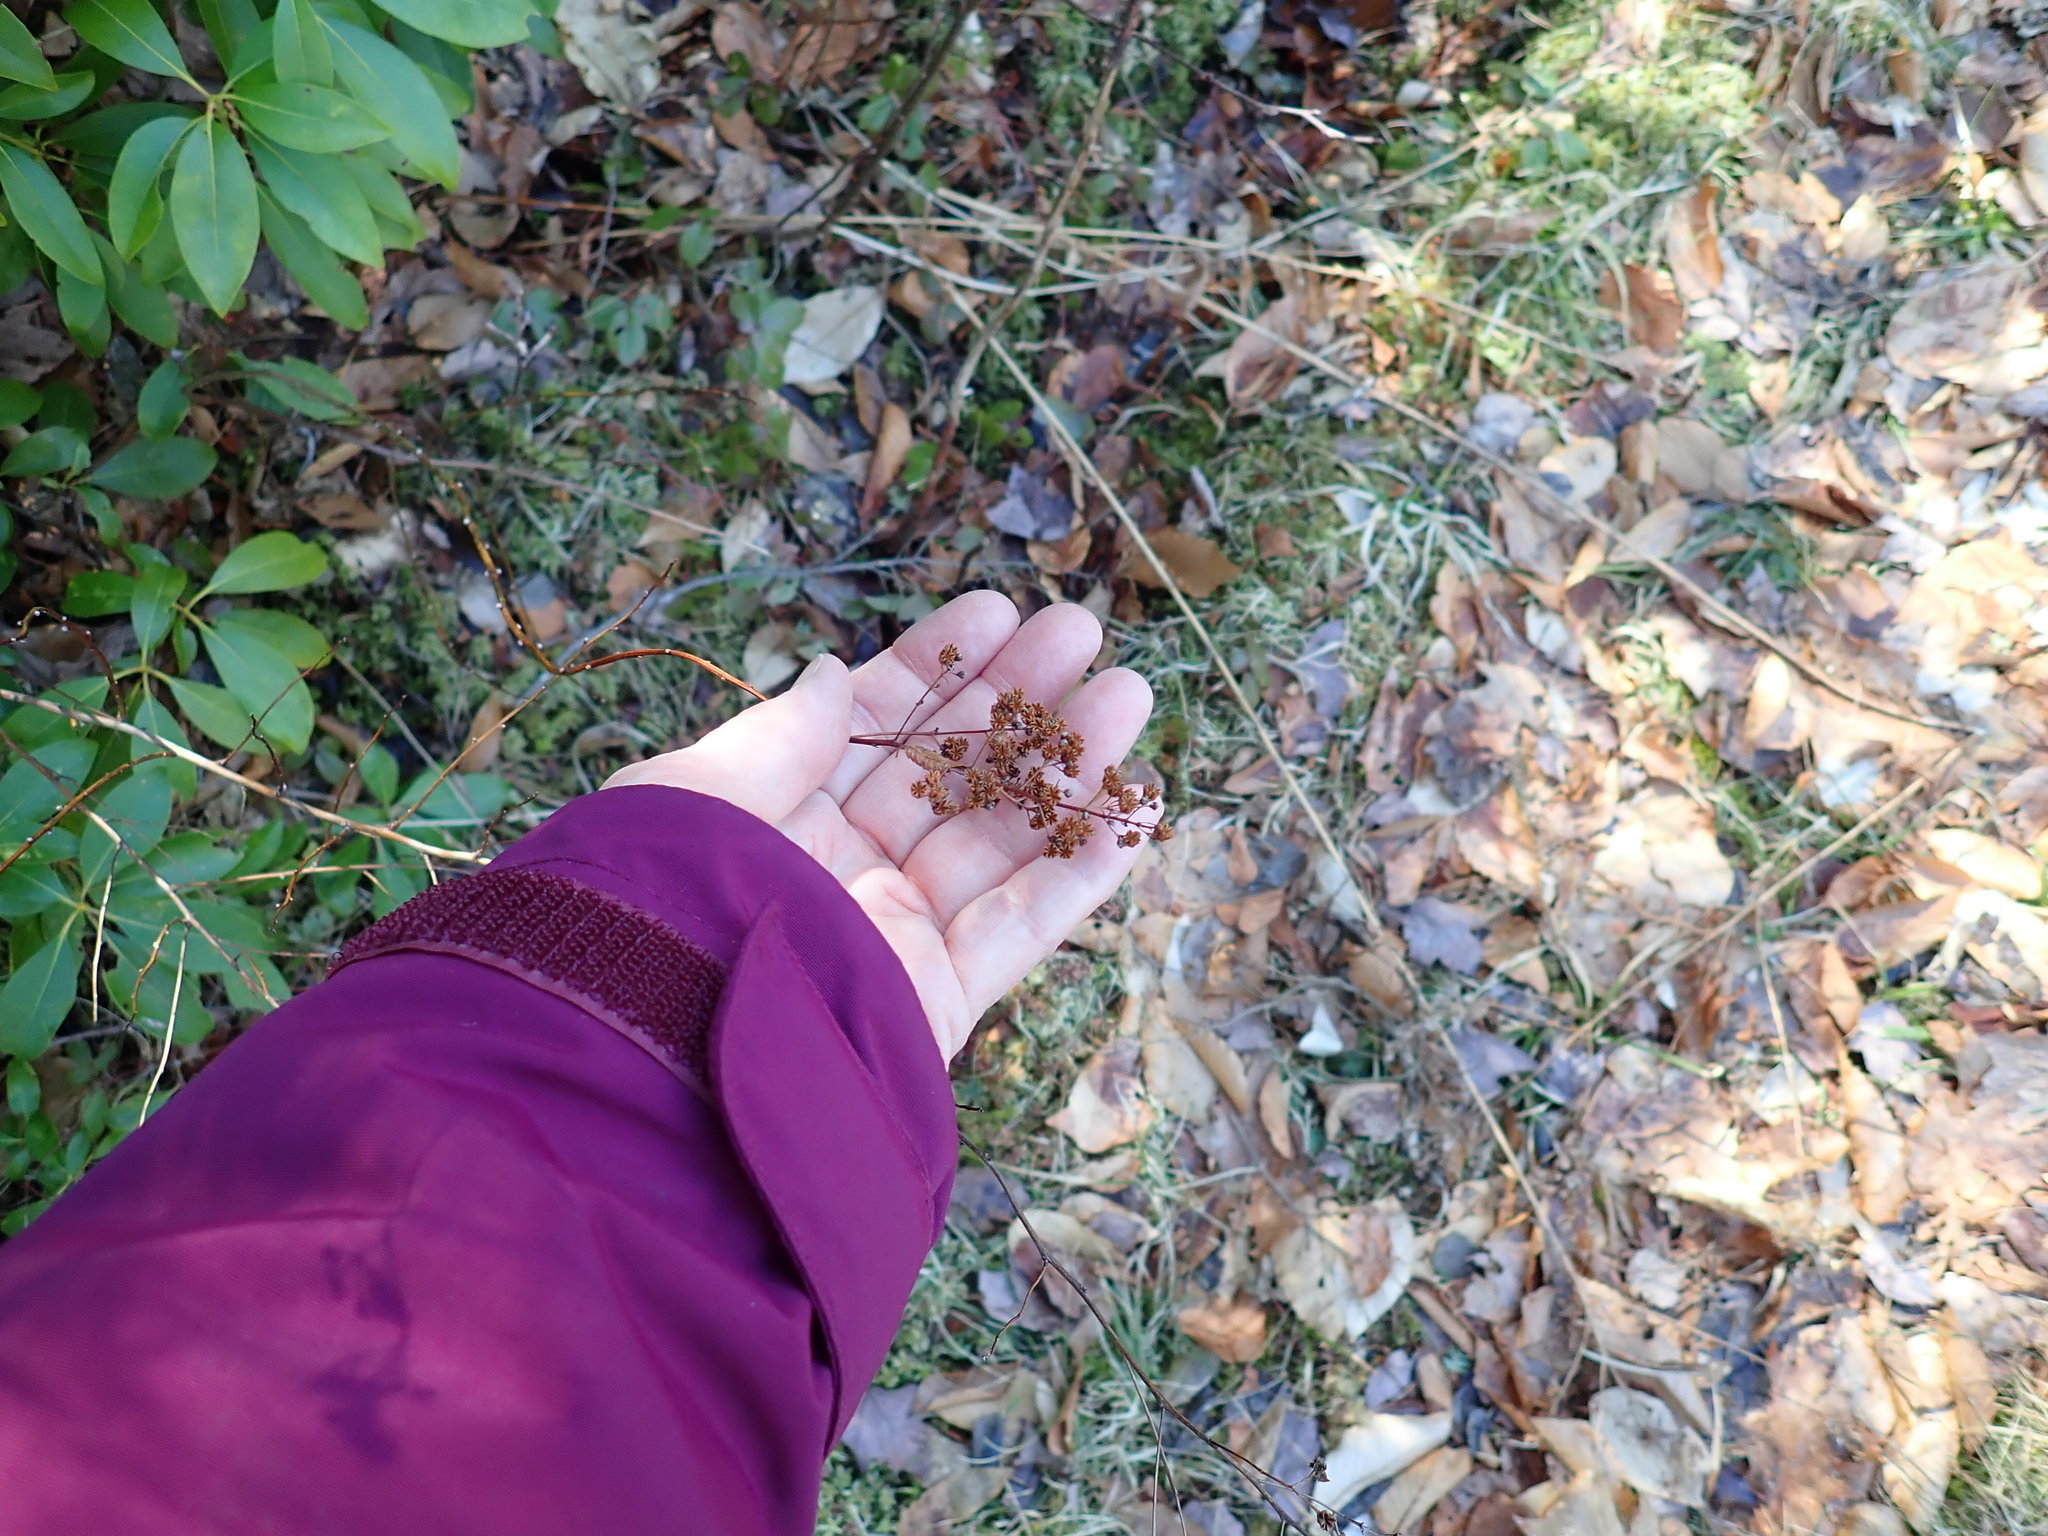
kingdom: Plantae
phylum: Tracheophyta
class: Magnoliopsida
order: Rosales
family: Rosaceae
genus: Spiraea
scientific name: Spiraea alba
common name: Pale bridewort
